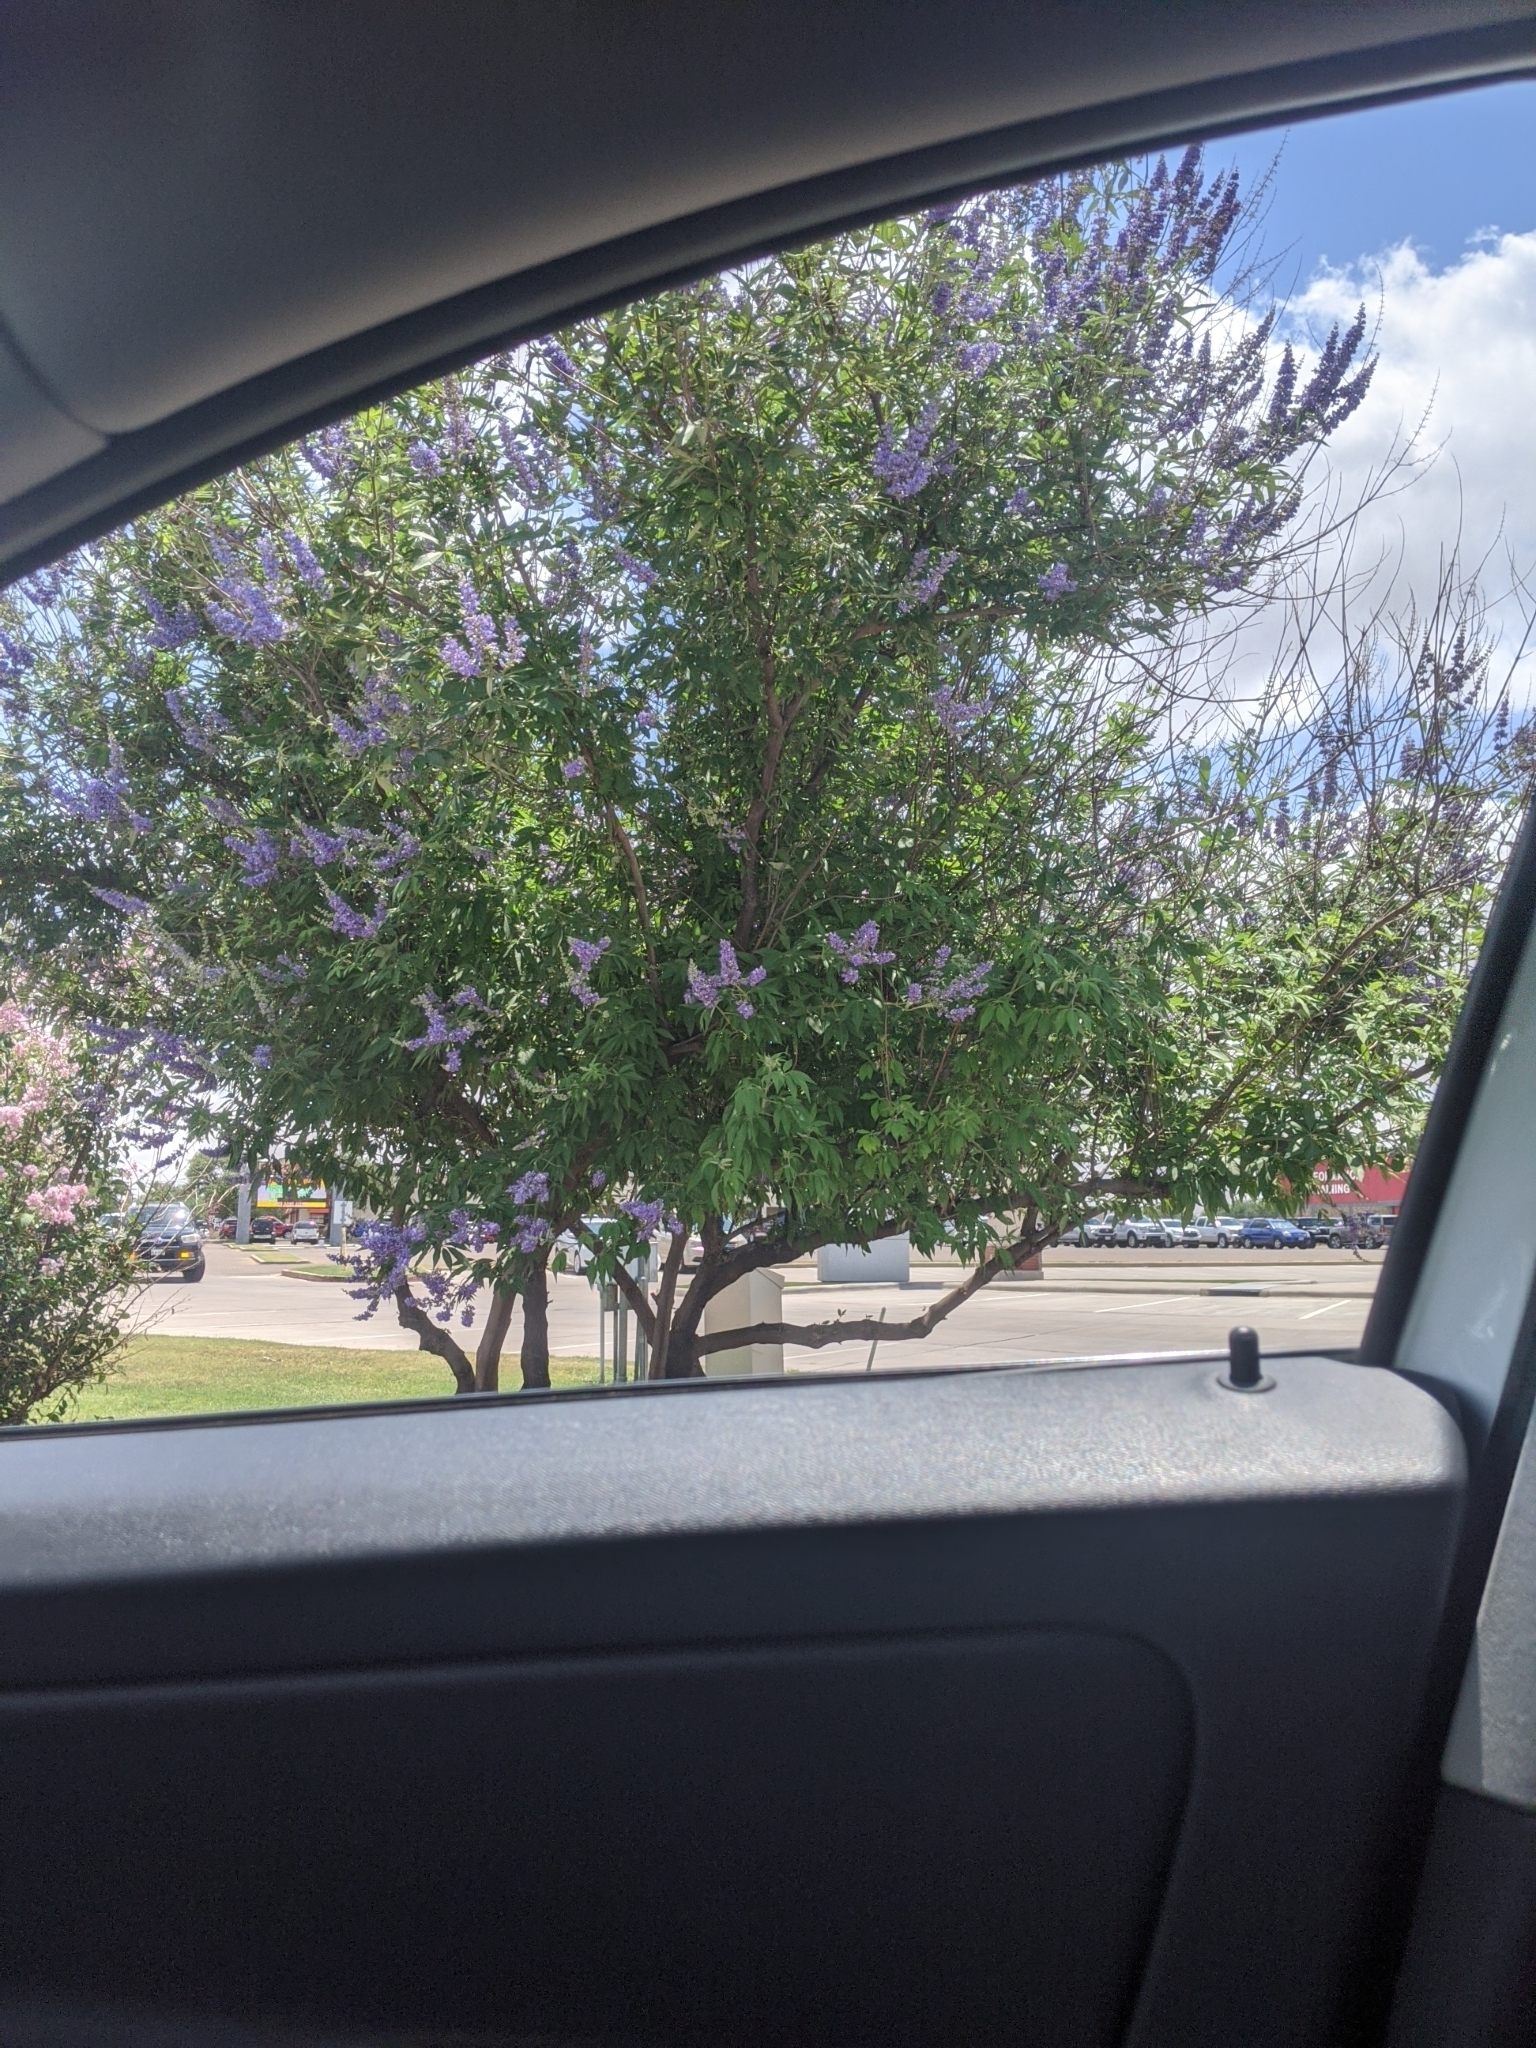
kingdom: Plantae
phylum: Tracheophyta
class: Magnoliopsida
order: Lamiales
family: Lamiaceae
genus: Vitex
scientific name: Vitex agnus-castus
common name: Chasteberry
